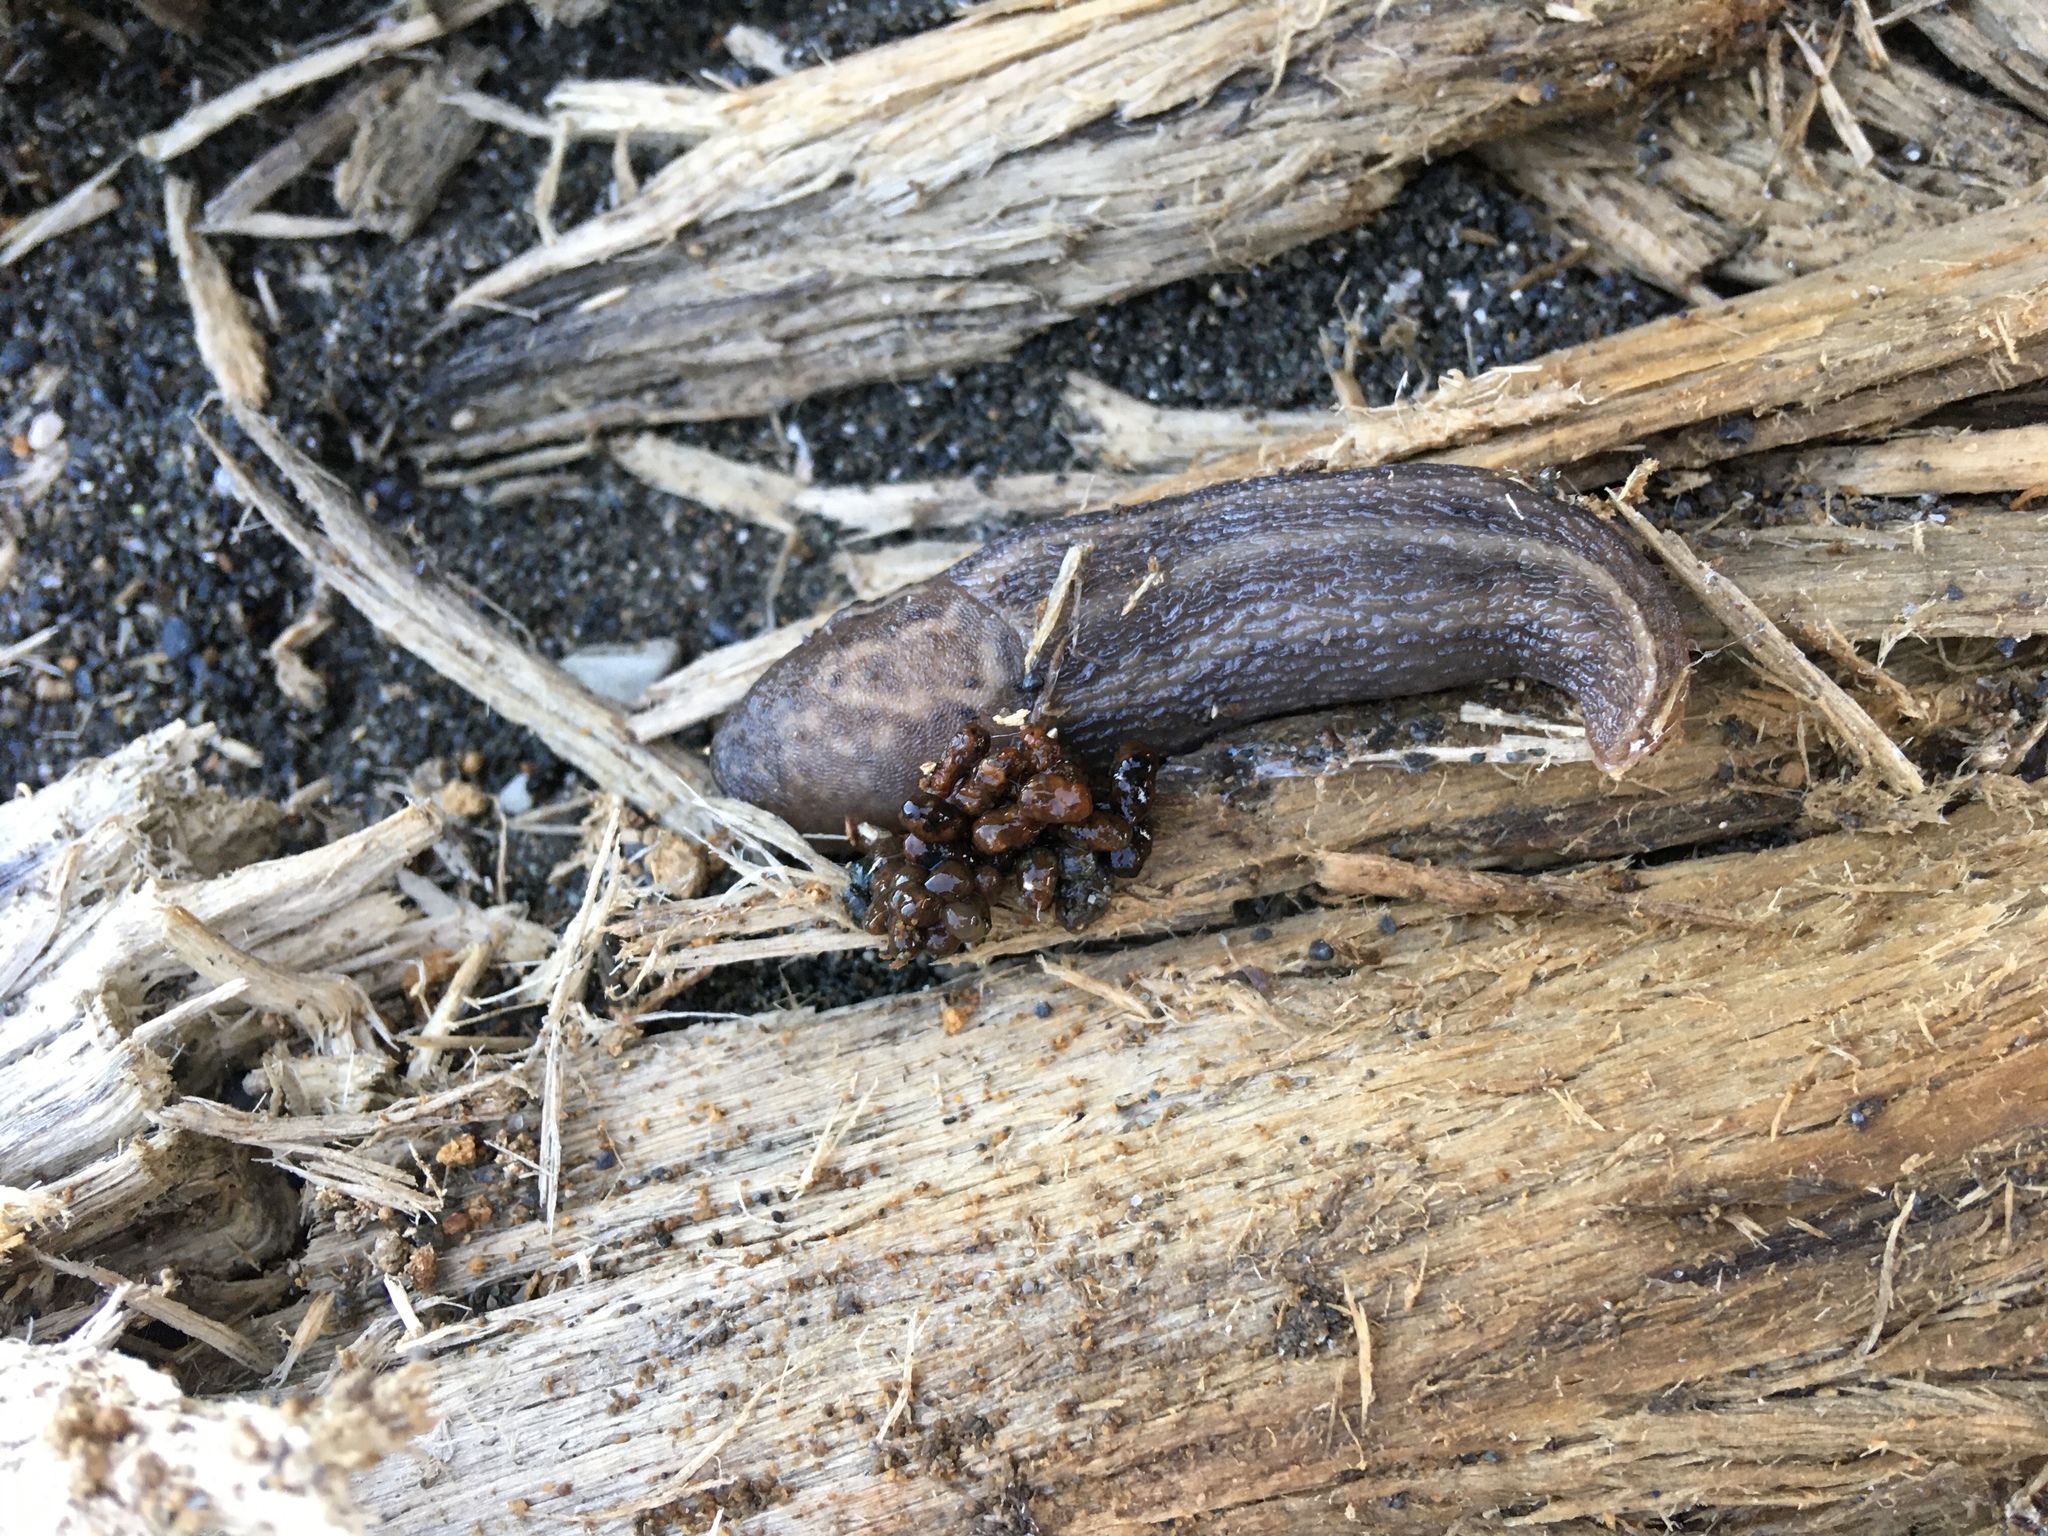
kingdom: Animalia
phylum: Mollusca
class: Gastropoda
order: Stylommatophora
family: Limacidae
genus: Limax
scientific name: Limax maximus
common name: Great grey slug
